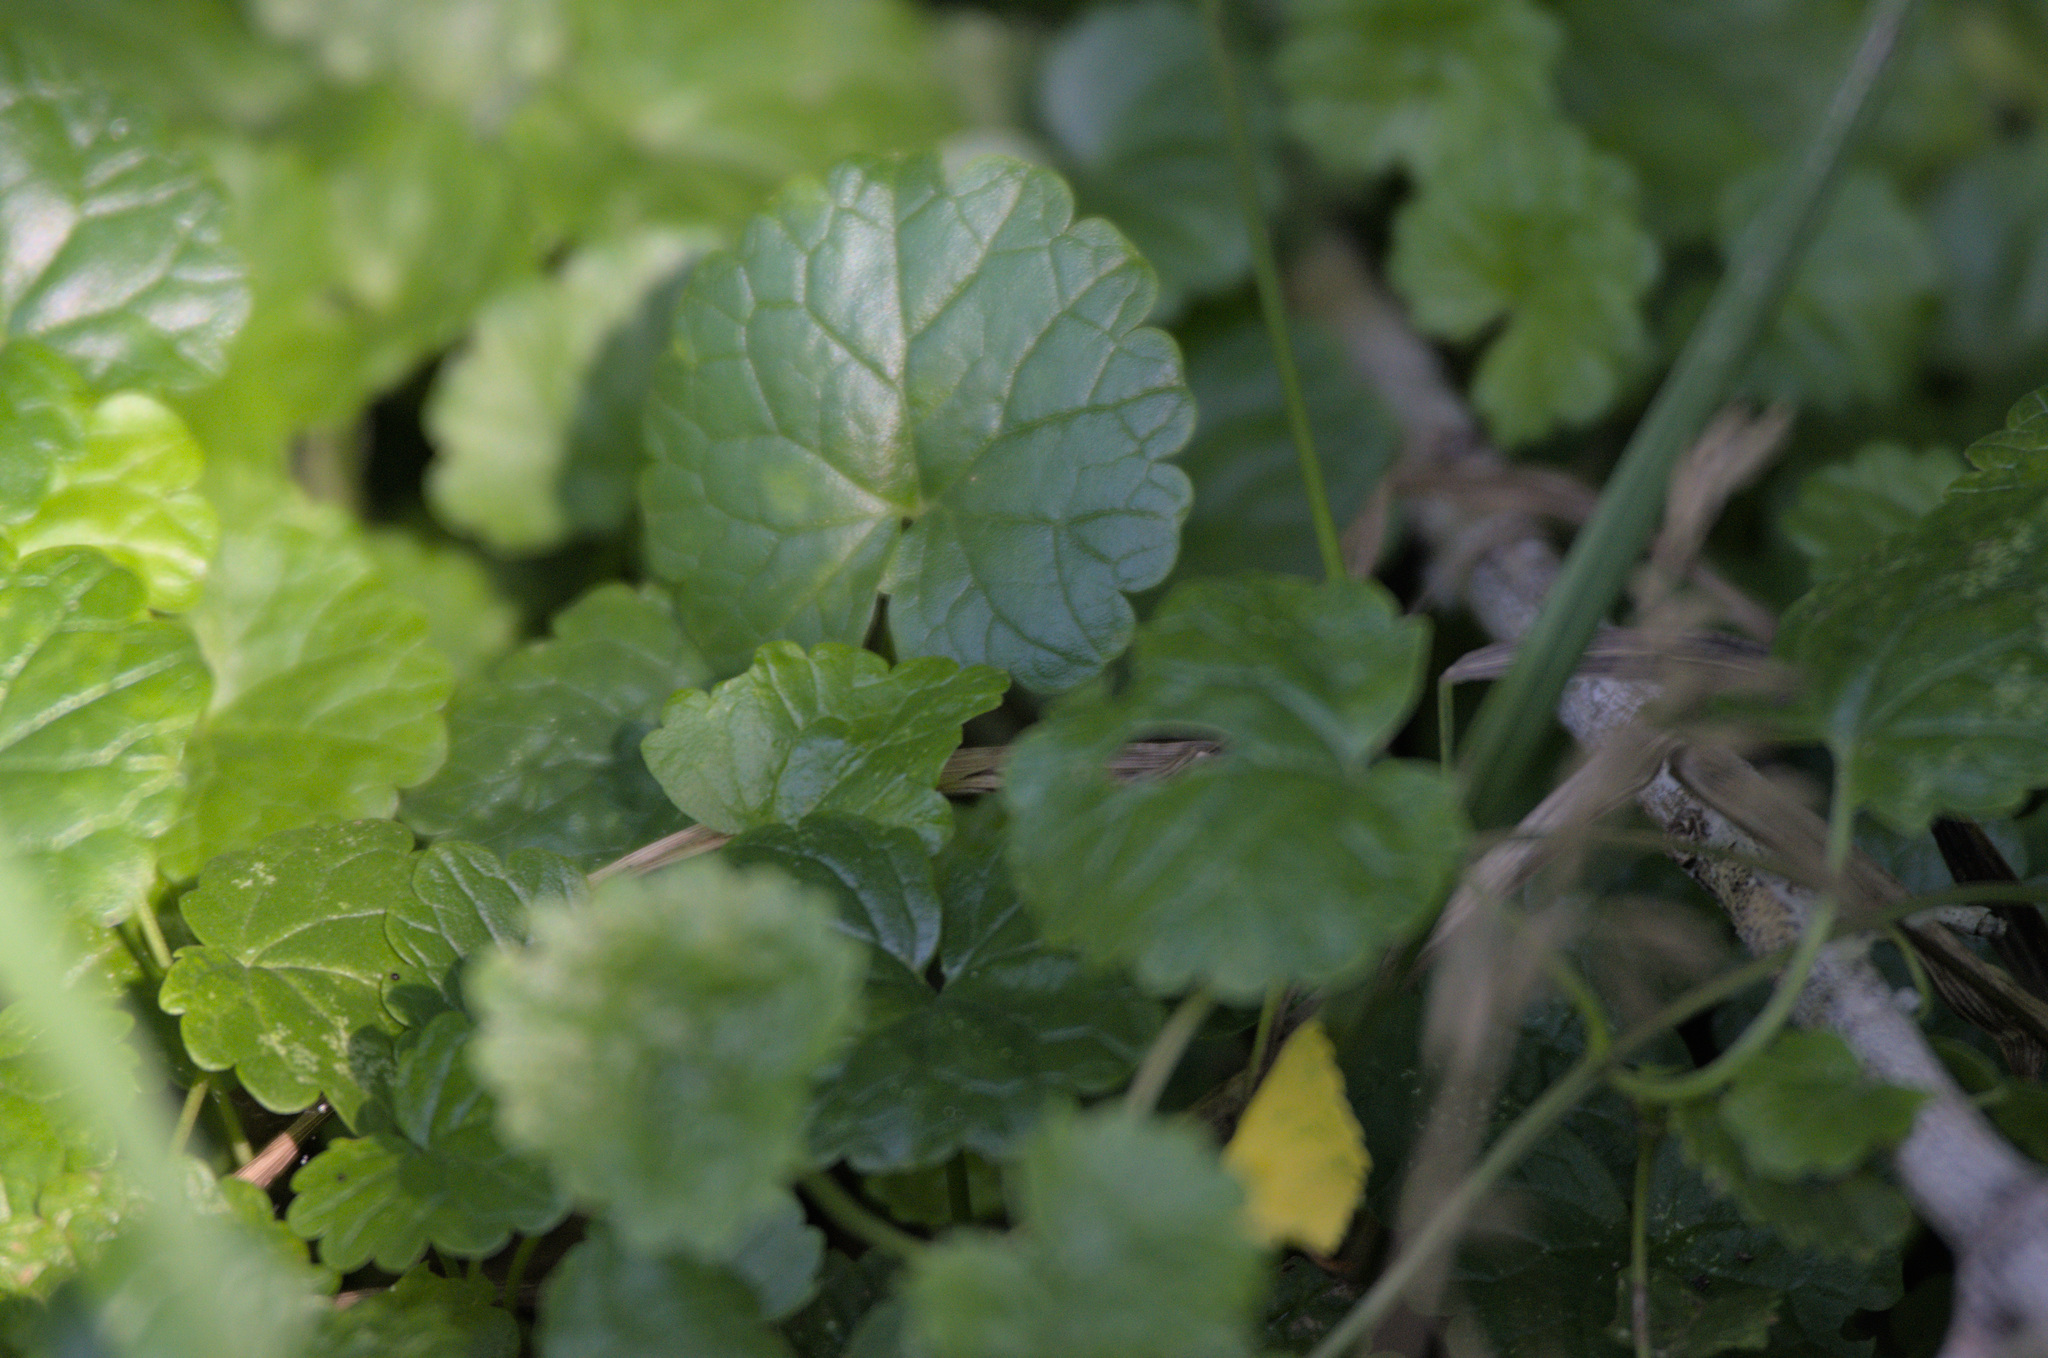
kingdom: Plantae
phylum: Tracheophyta
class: Magnoliopsida
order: Lamiales
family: Lamiaceae
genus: Glechoma
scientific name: Glechoma hederacea
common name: Ground ivy
